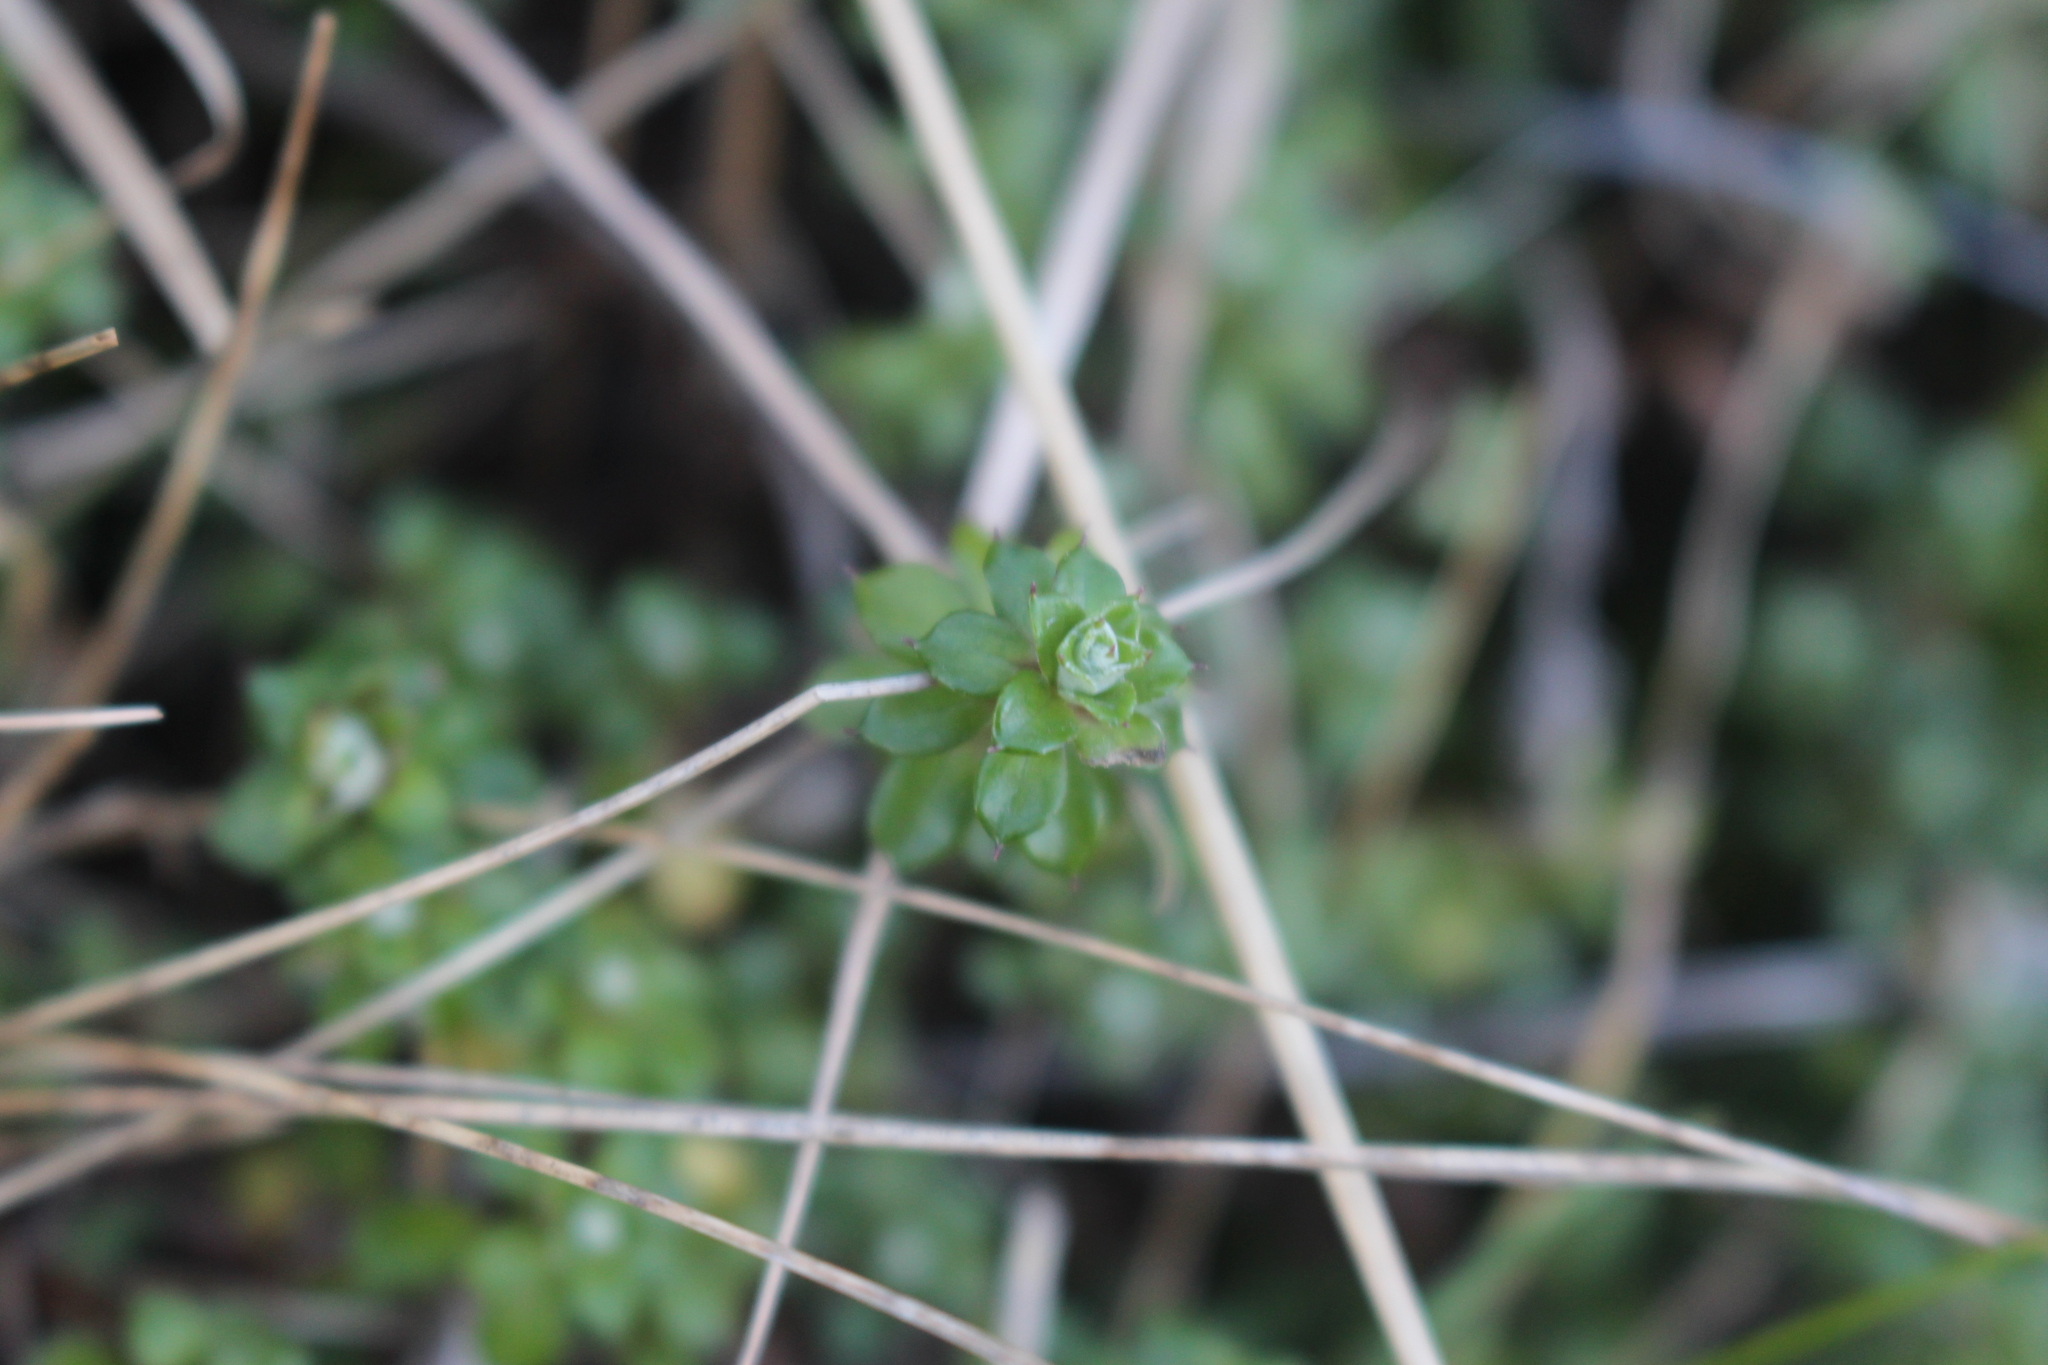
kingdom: Plantae
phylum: Tracheophyta
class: Magnoliopsida
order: Ericales
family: Ericaceae
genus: Styphelia
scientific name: Styphelia nesophila
